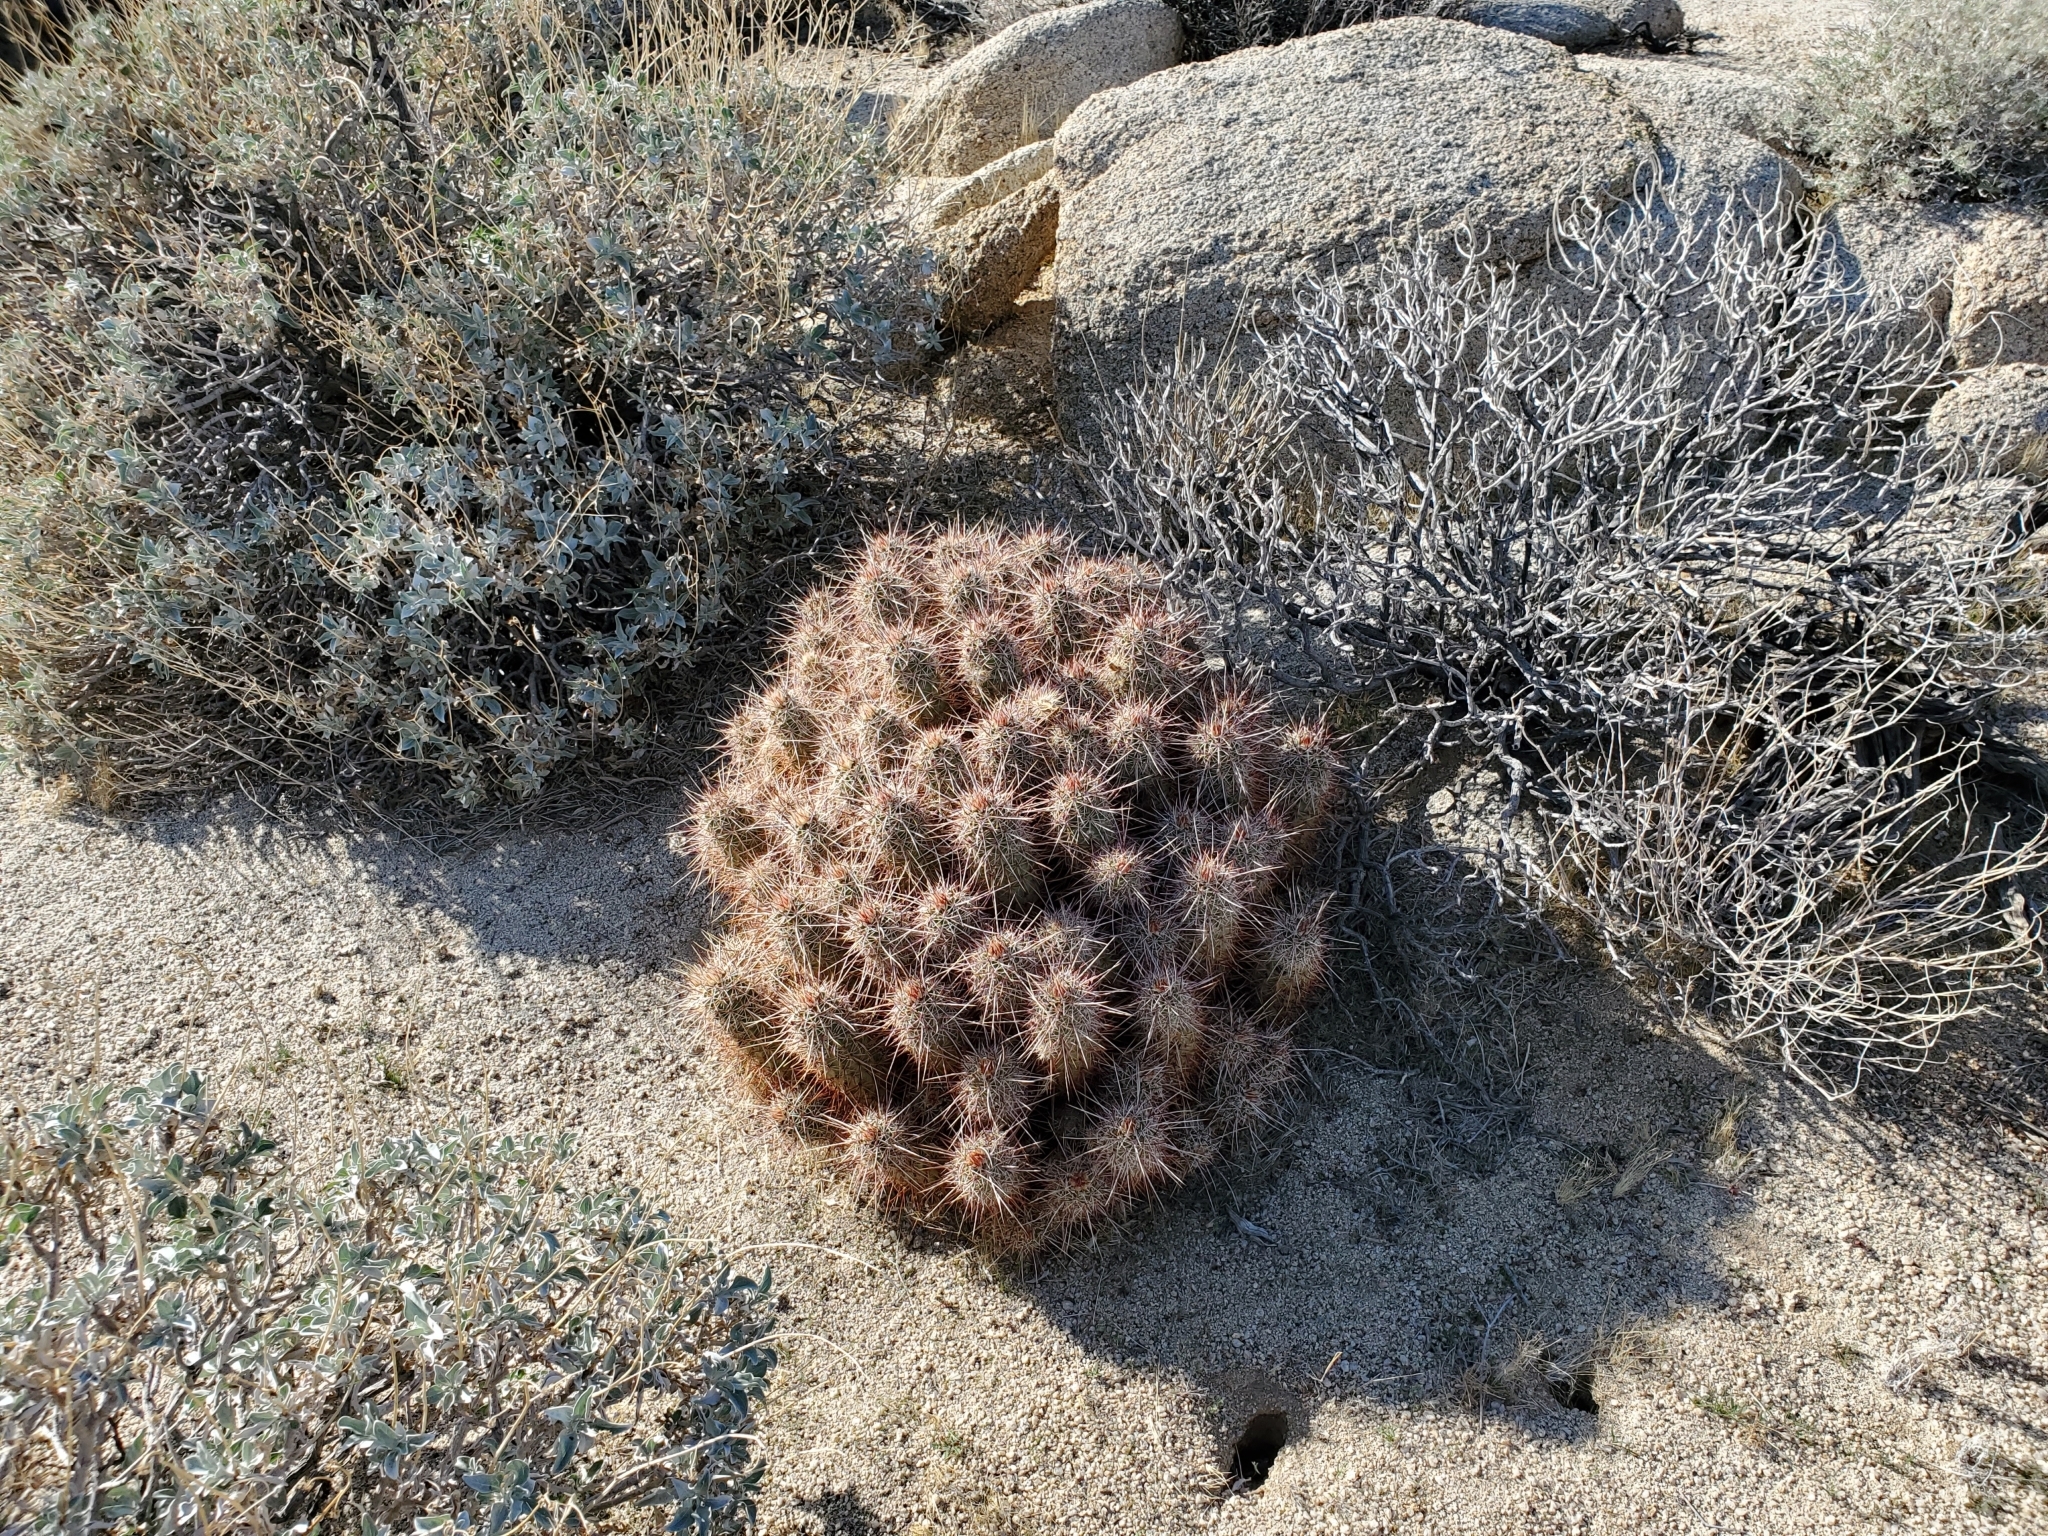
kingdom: Plantae
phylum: Tracheophyta
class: Magnoliopsida
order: Caryophyllales
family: Cactaceae
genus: Echinocereus
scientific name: Echinocereus engelmannii
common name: Engelmann's hedgehog cactus
